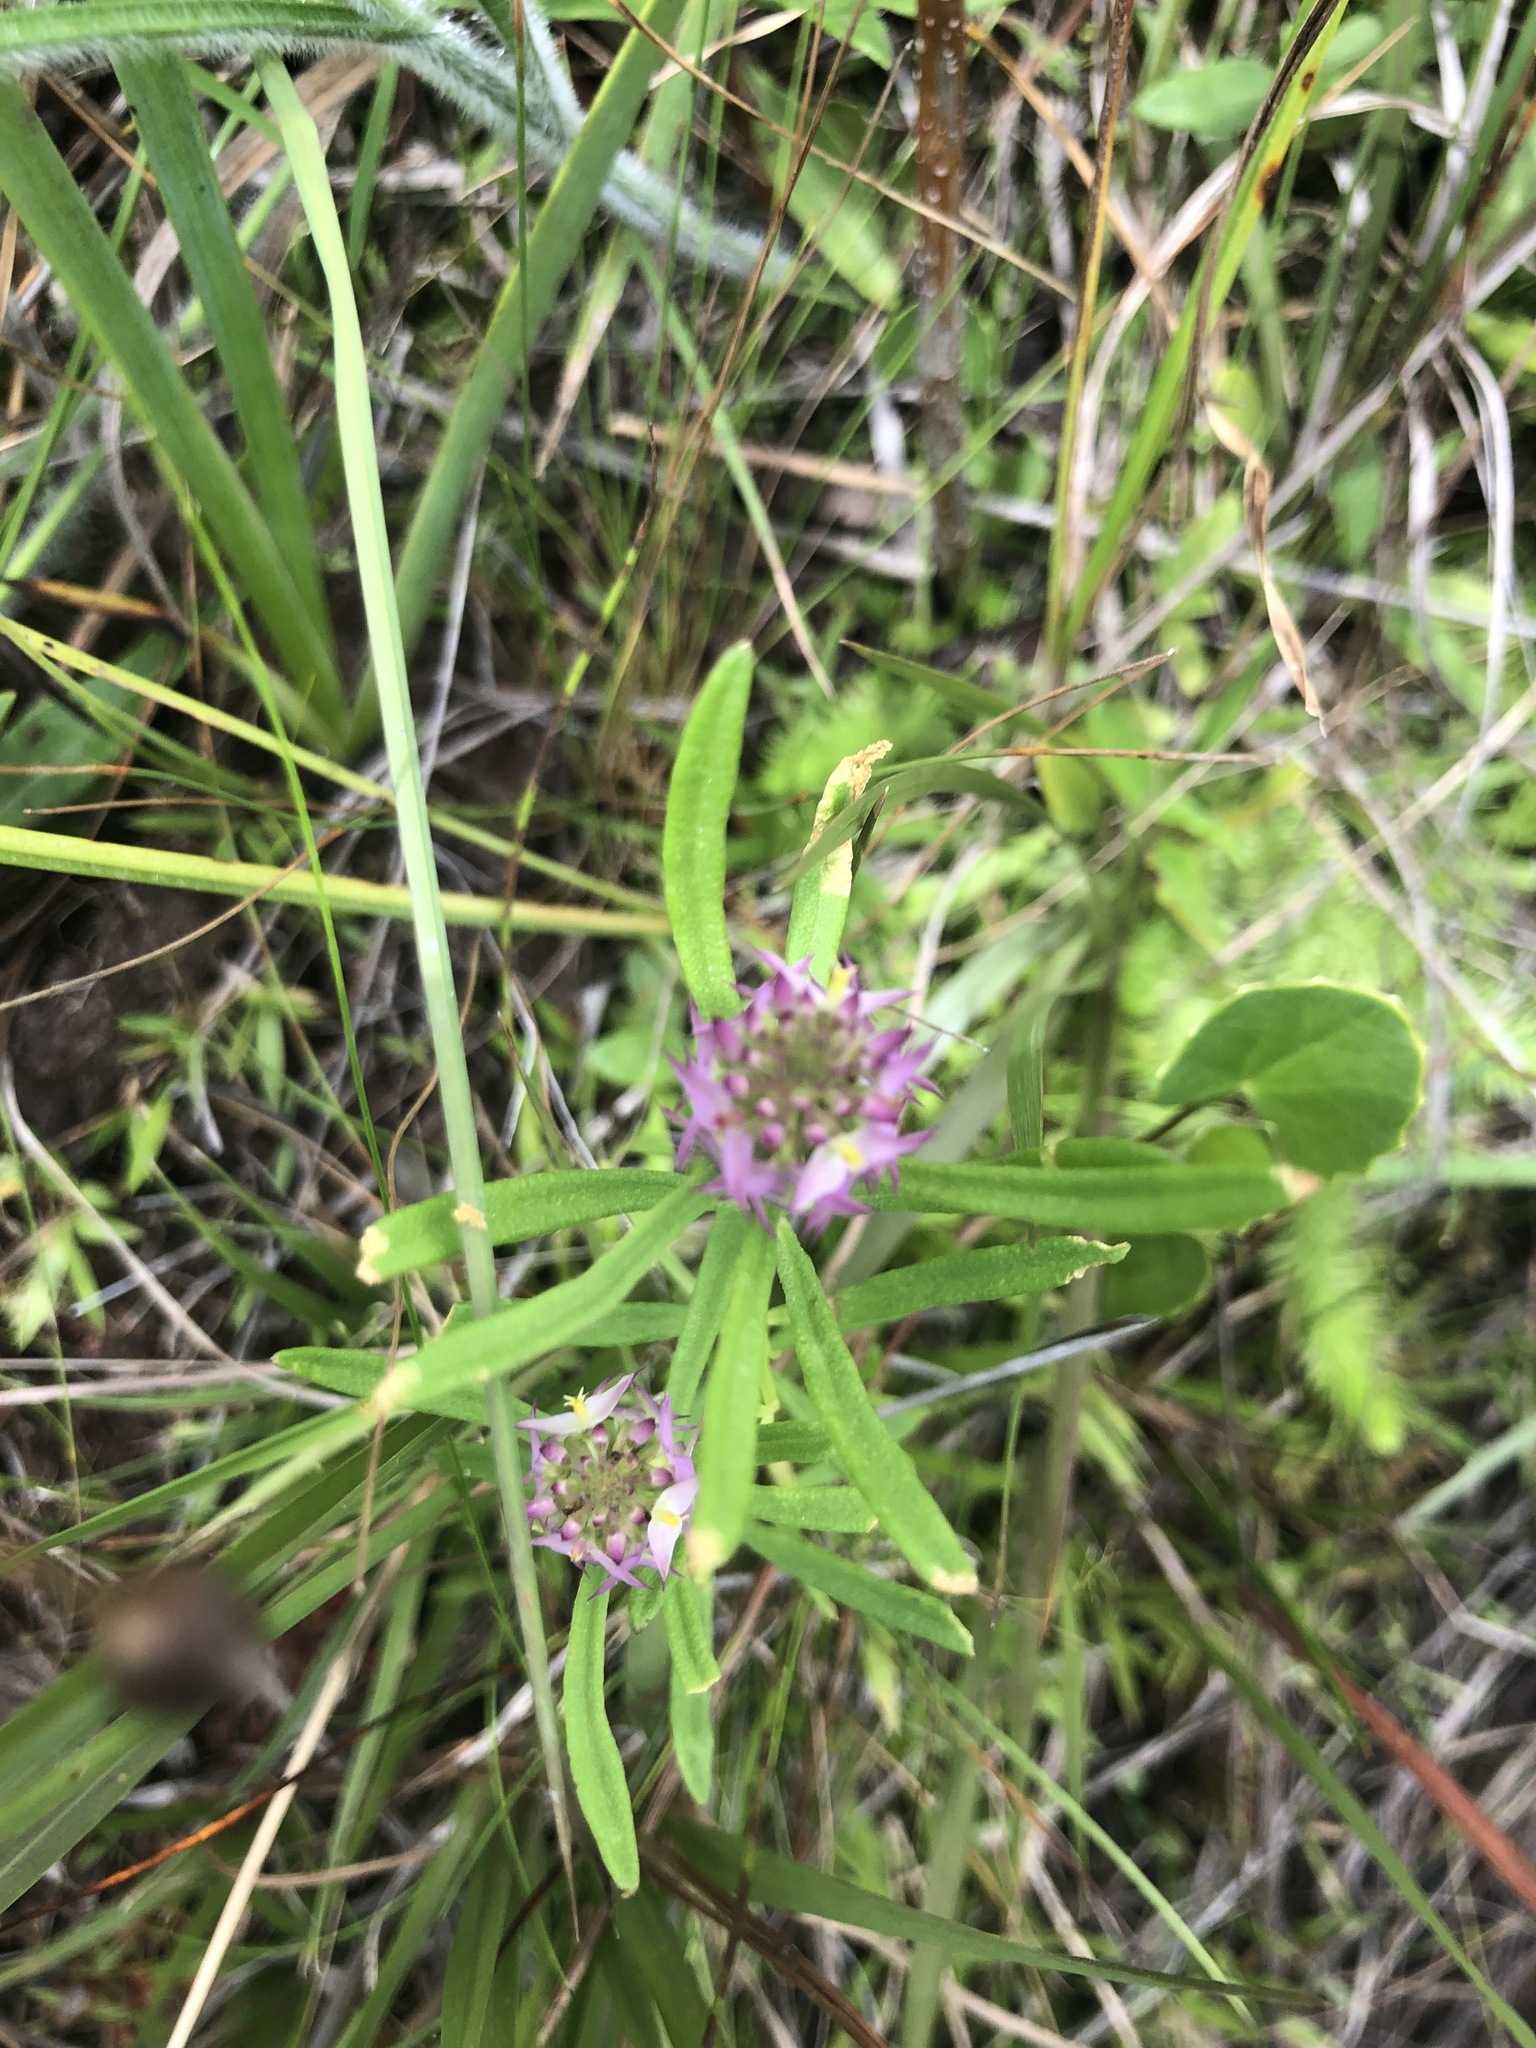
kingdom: Plantae
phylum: Tracheophyta
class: Magnoliopsida
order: Fabales
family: Polygalaceae
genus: Polygala
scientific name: Polygala cruciata
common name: Drumheads
